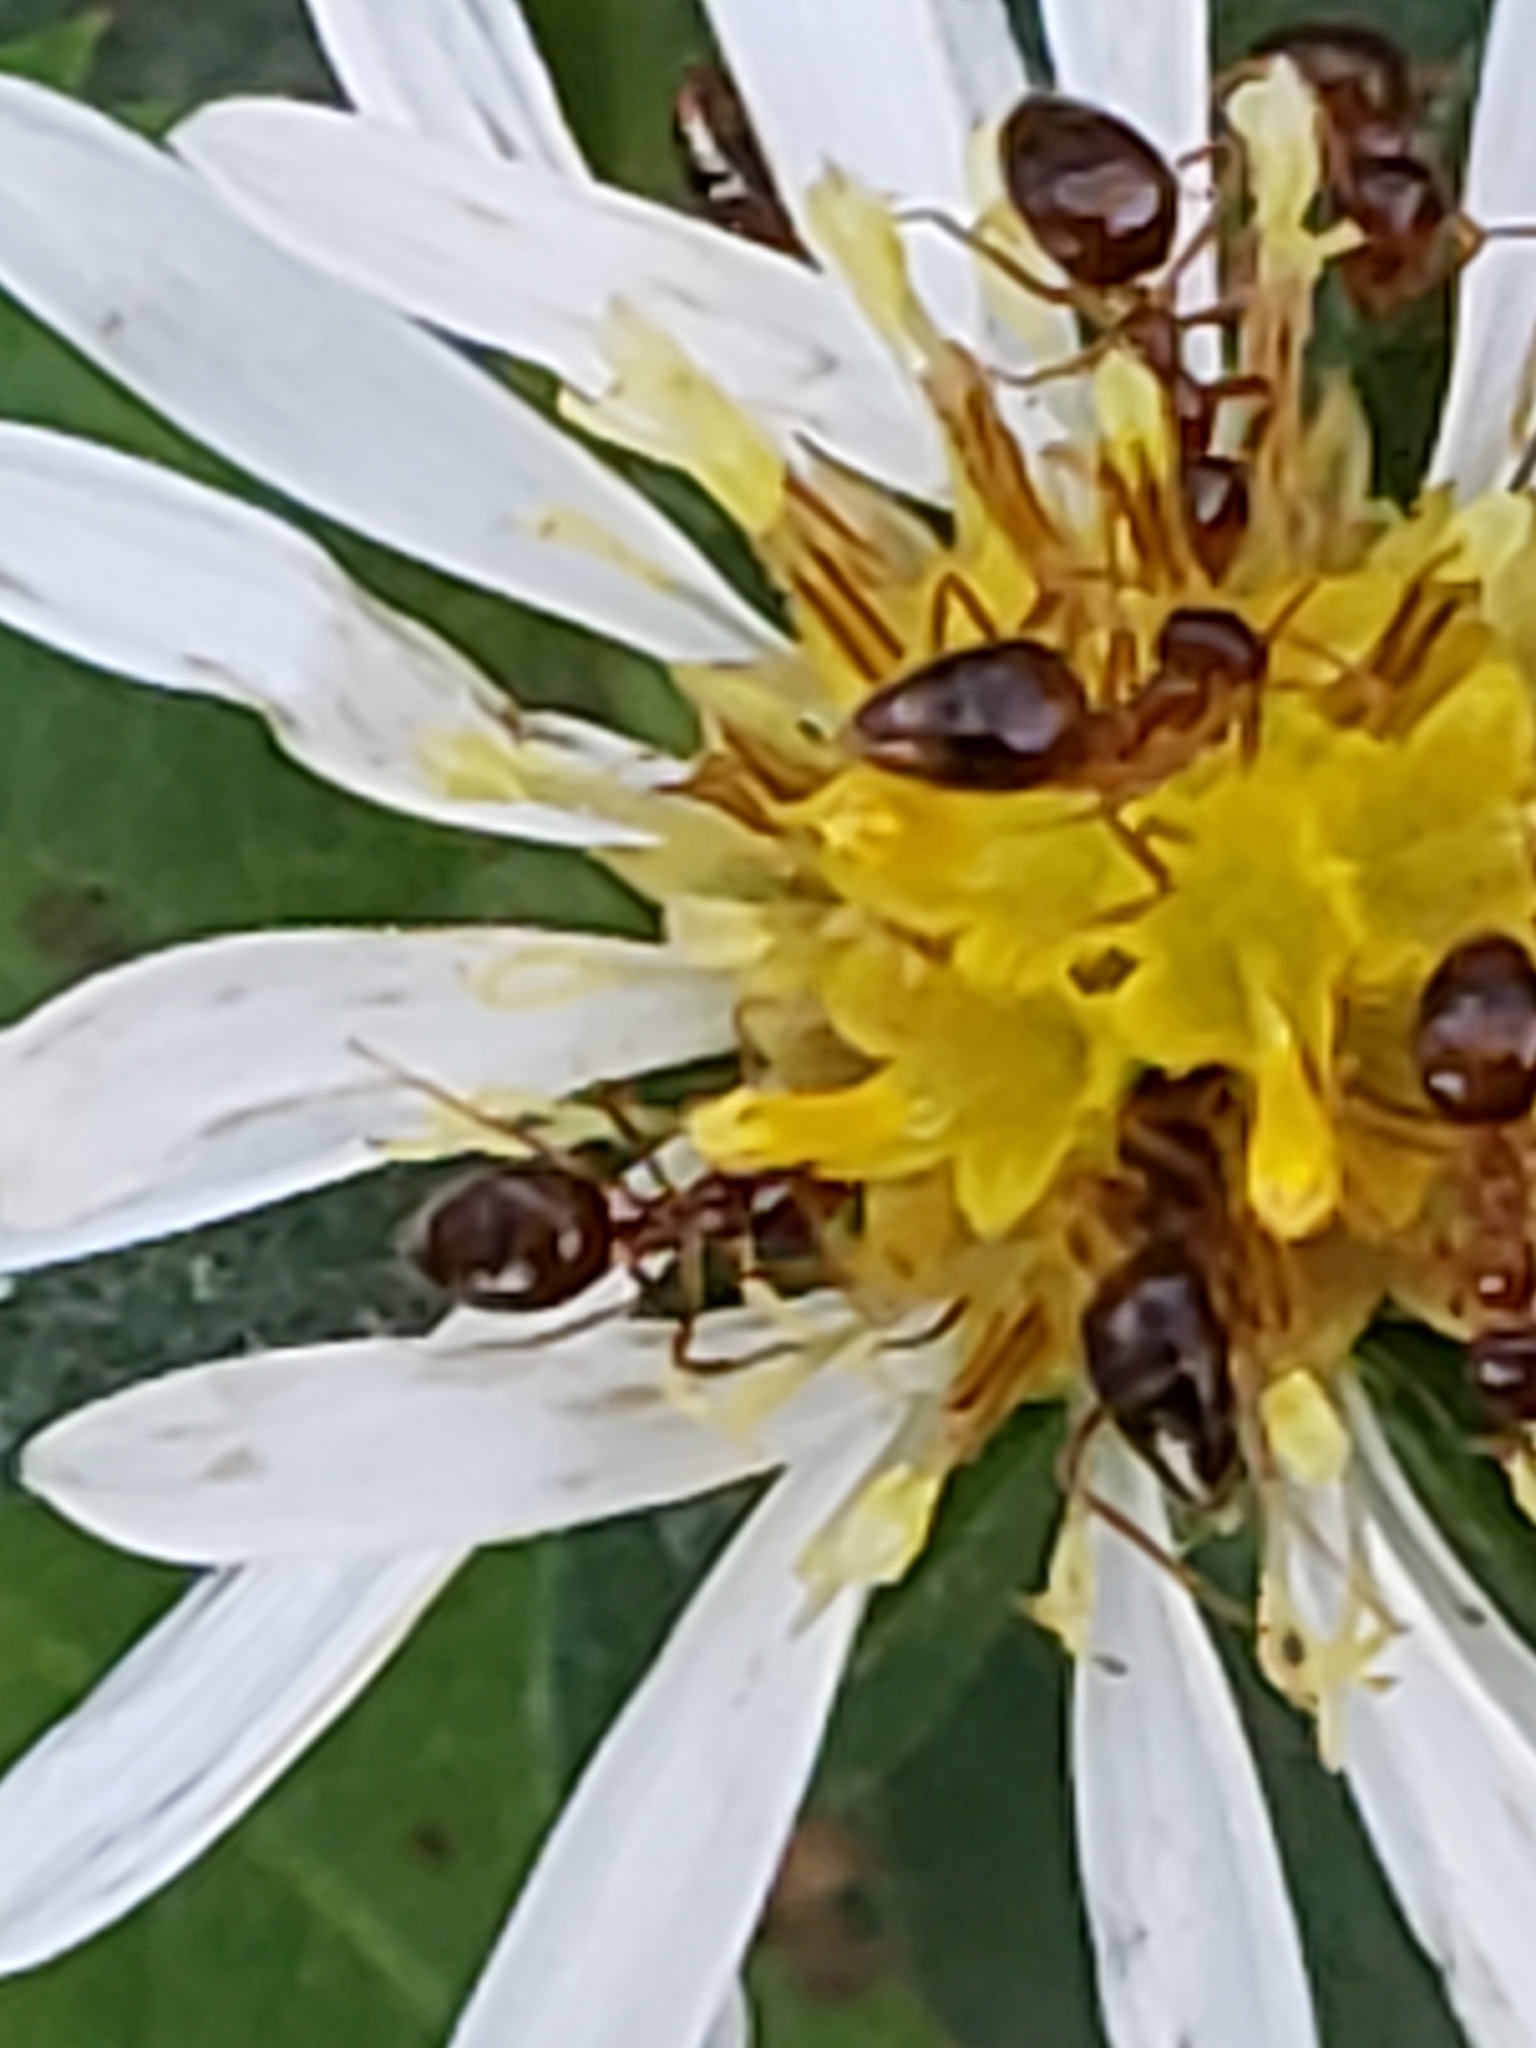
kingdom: Animalia
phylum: Arthropoda
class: Insecta
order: Hymenoptera
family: Formicidae
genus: Prenolepis
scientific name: Prenolepis imparis
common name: Small honey ant
